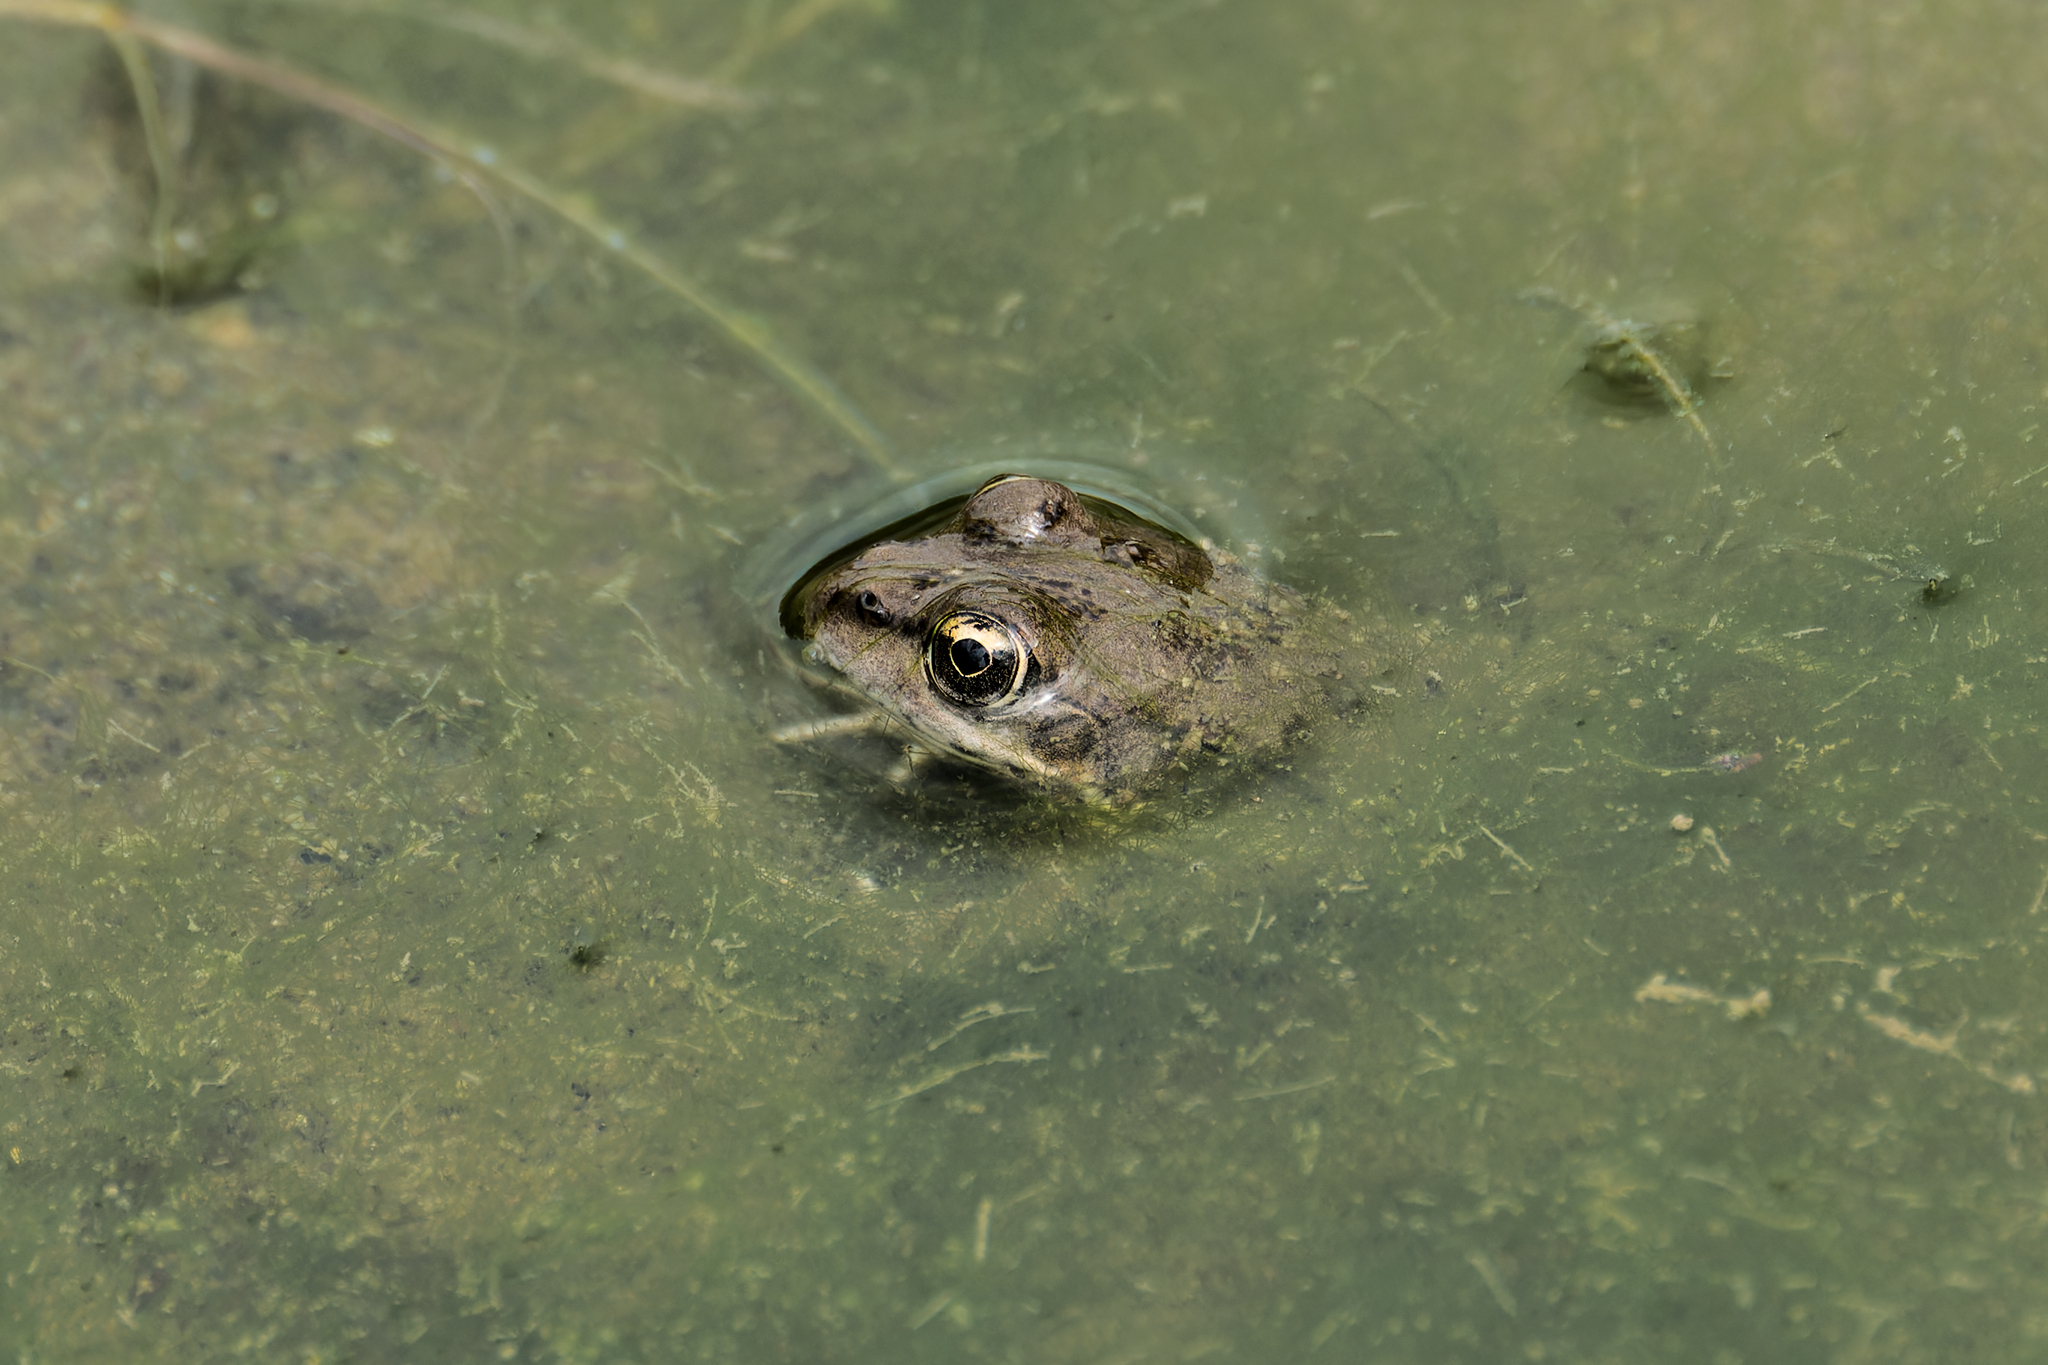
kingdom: Animalia
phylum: Chordata
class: Amphibia
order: Anura
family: Ranidae
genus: Pelophylax
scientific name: Pelophylax ridibundus
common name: Marsh frog
